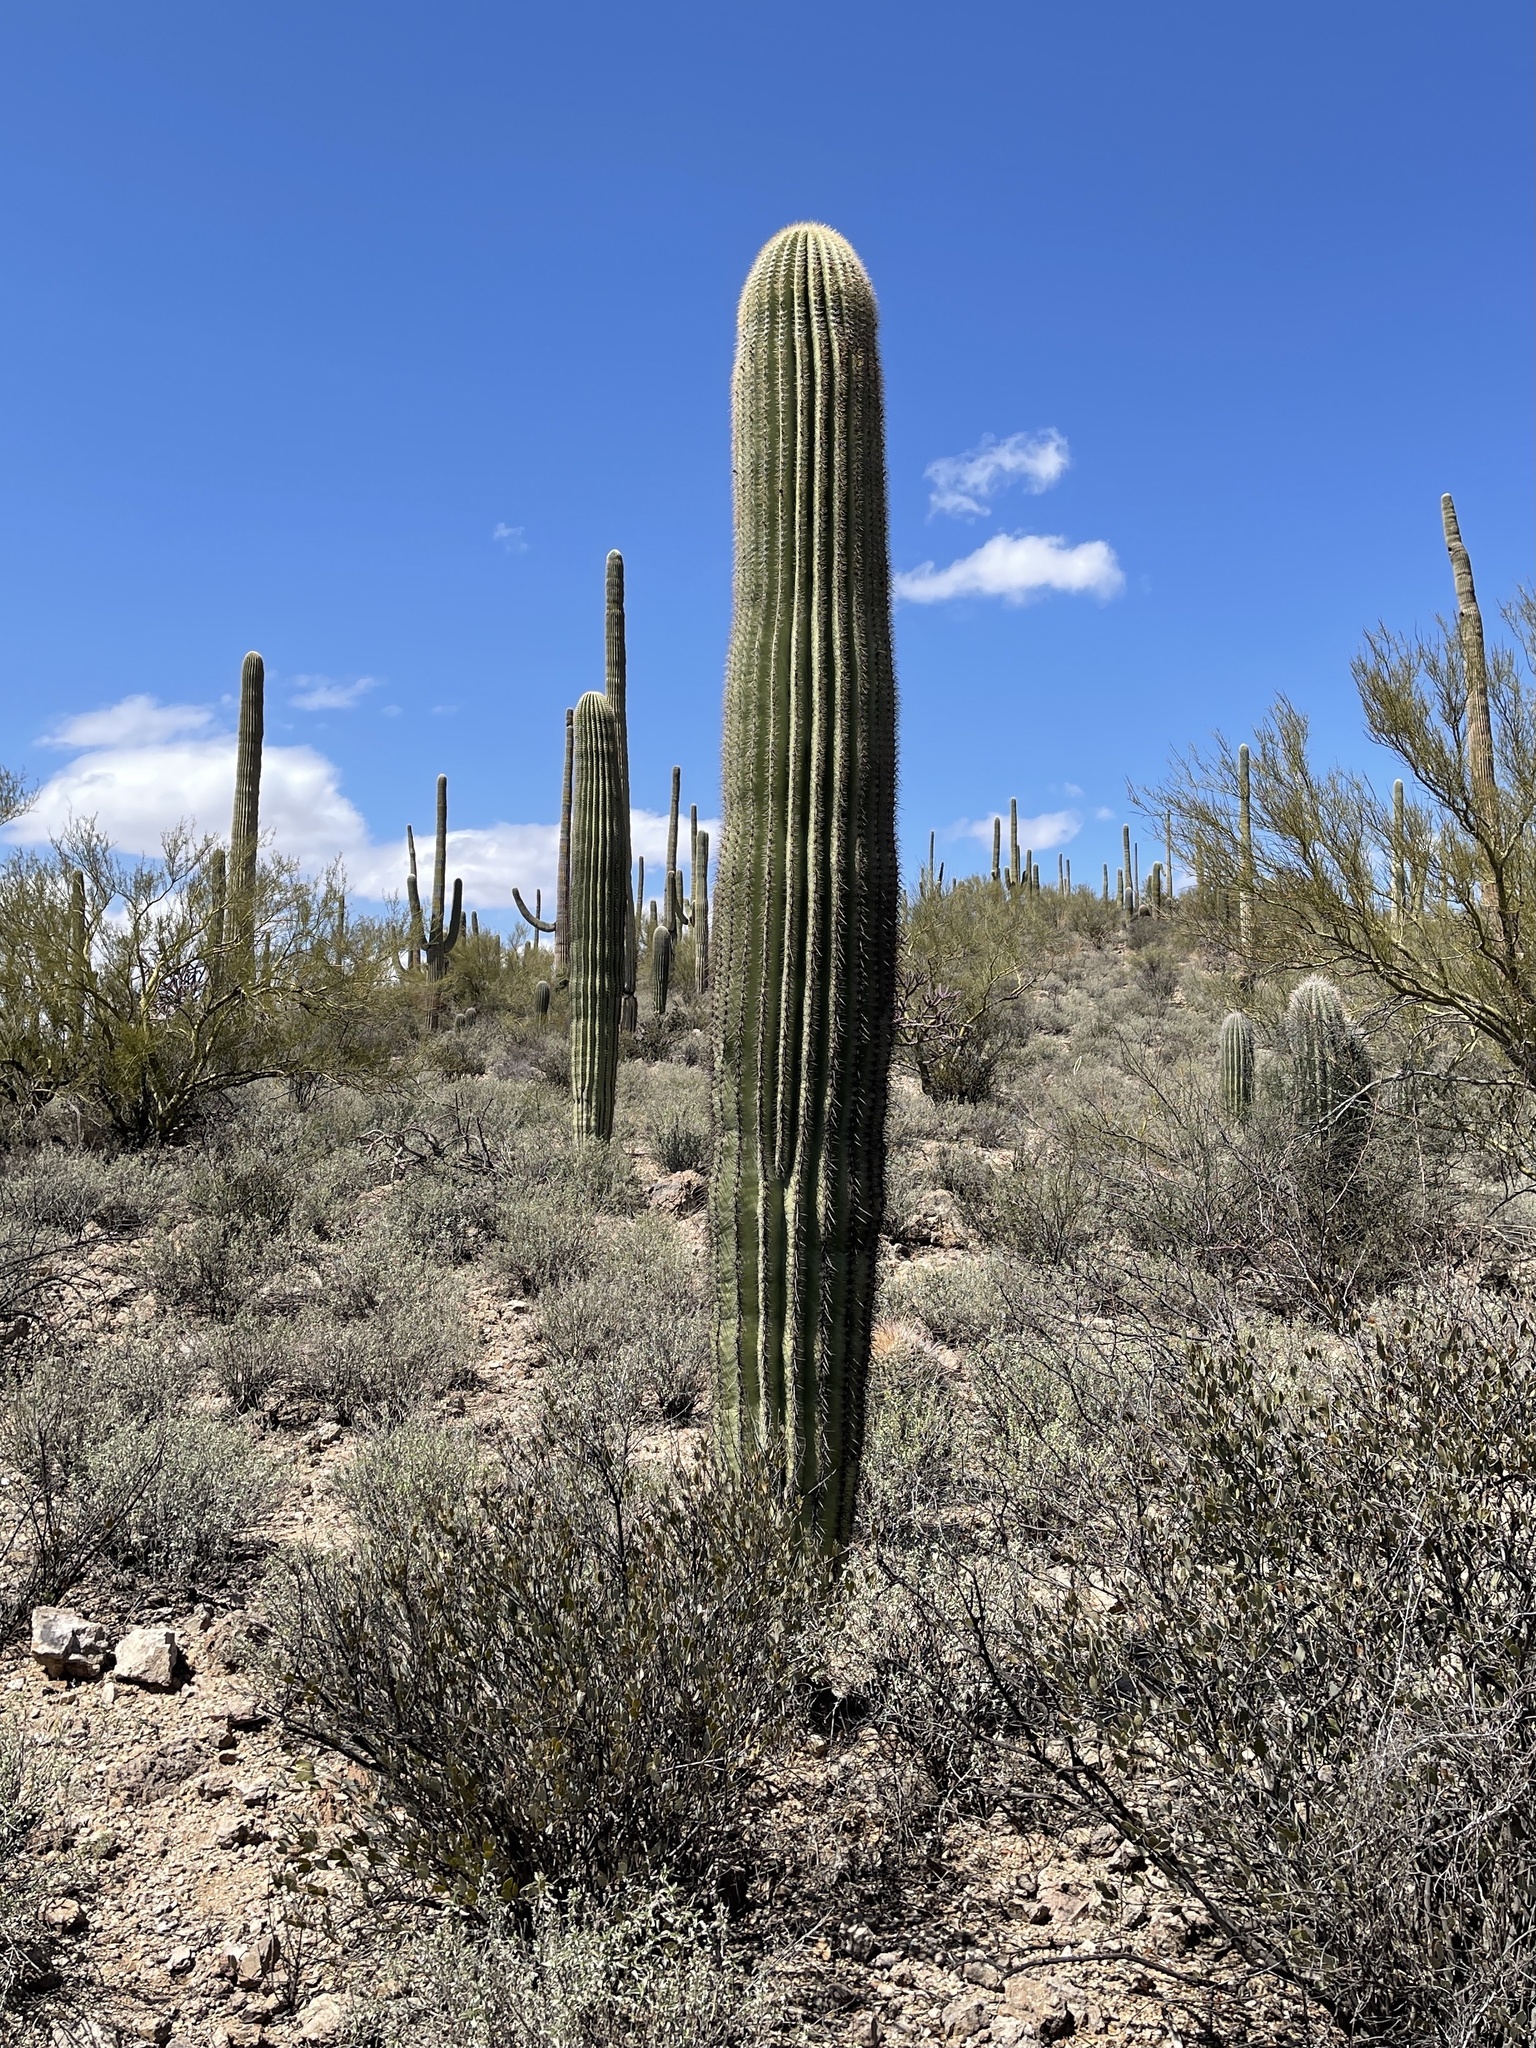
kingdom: Plantae
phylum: Tracheophyta
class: Magnoliopsida
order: Caryophyllales
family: Cactaceae
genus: Carnegiea
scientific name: Carnegiea gigantea
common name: Saguaro
